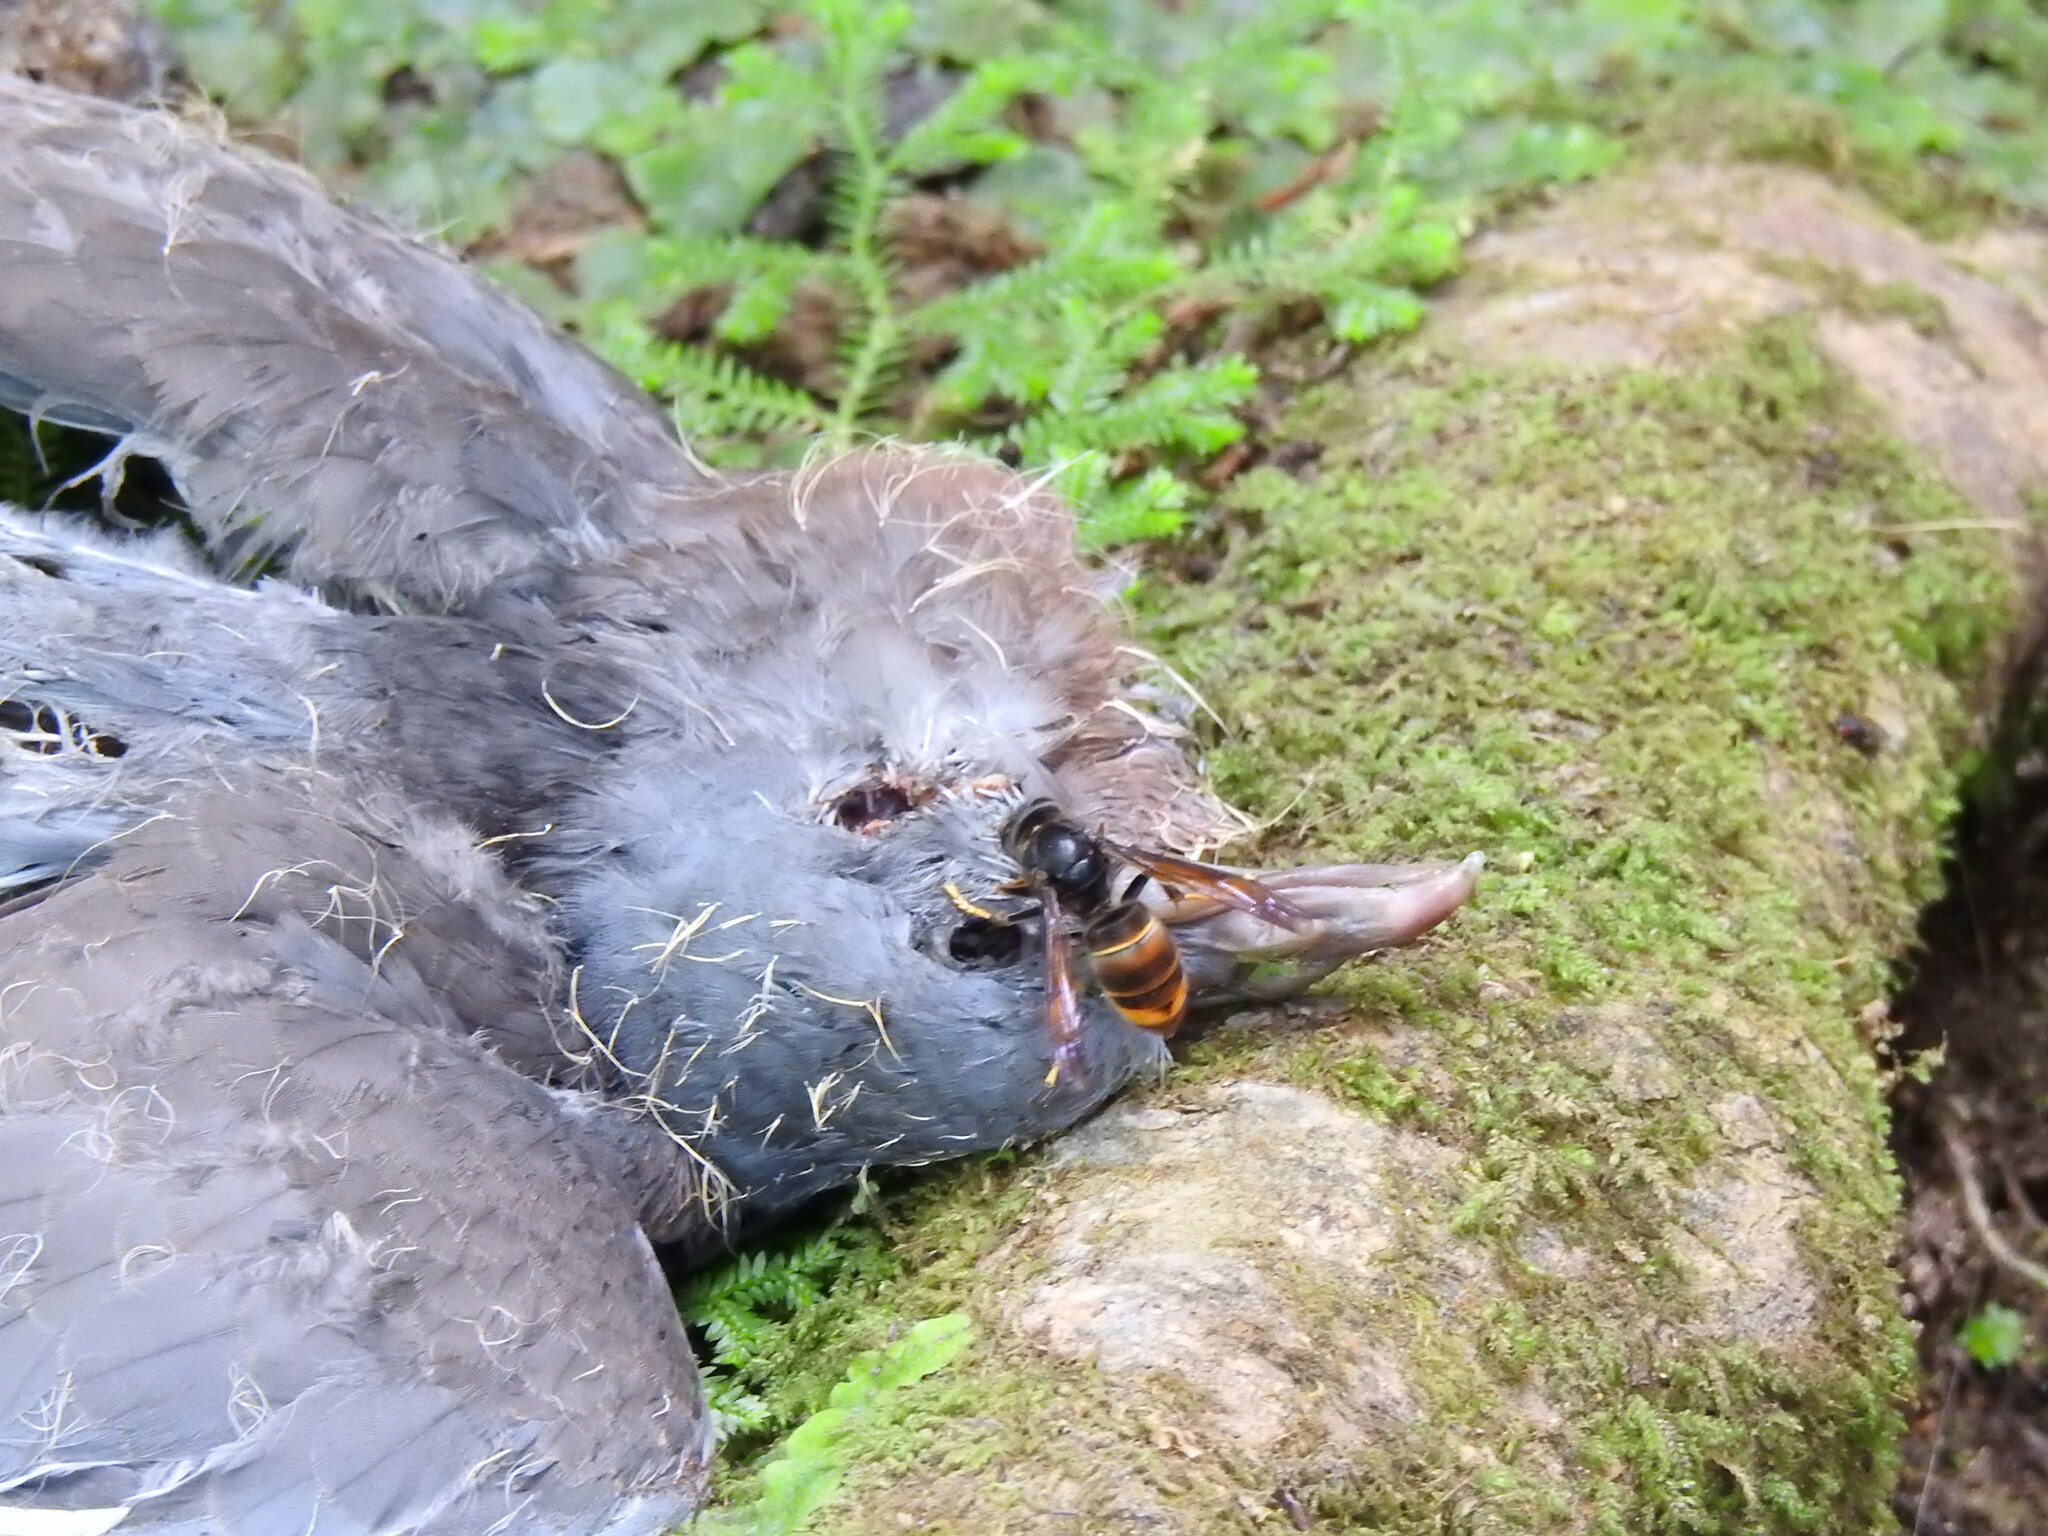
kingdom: Animalia
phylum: Arthropoda
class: Insecta
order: Hymenoptera
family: Vespidae
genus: Vespa
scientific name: Vespa velutina
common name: Asian hornet
